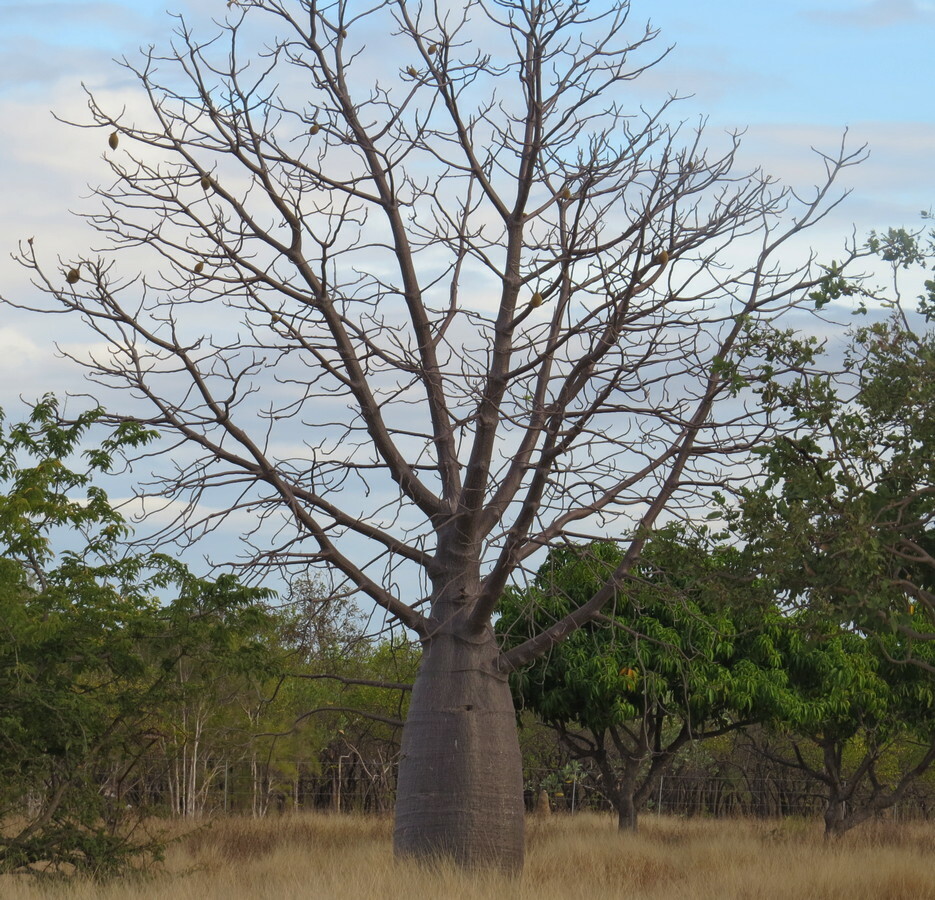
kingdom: Plantae
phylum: Tracheophyta
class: Magnoliopsida
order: Malvales
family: Malvaceae
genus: Adansonia
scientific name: Adansonia gregorii
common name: Australian baobab
